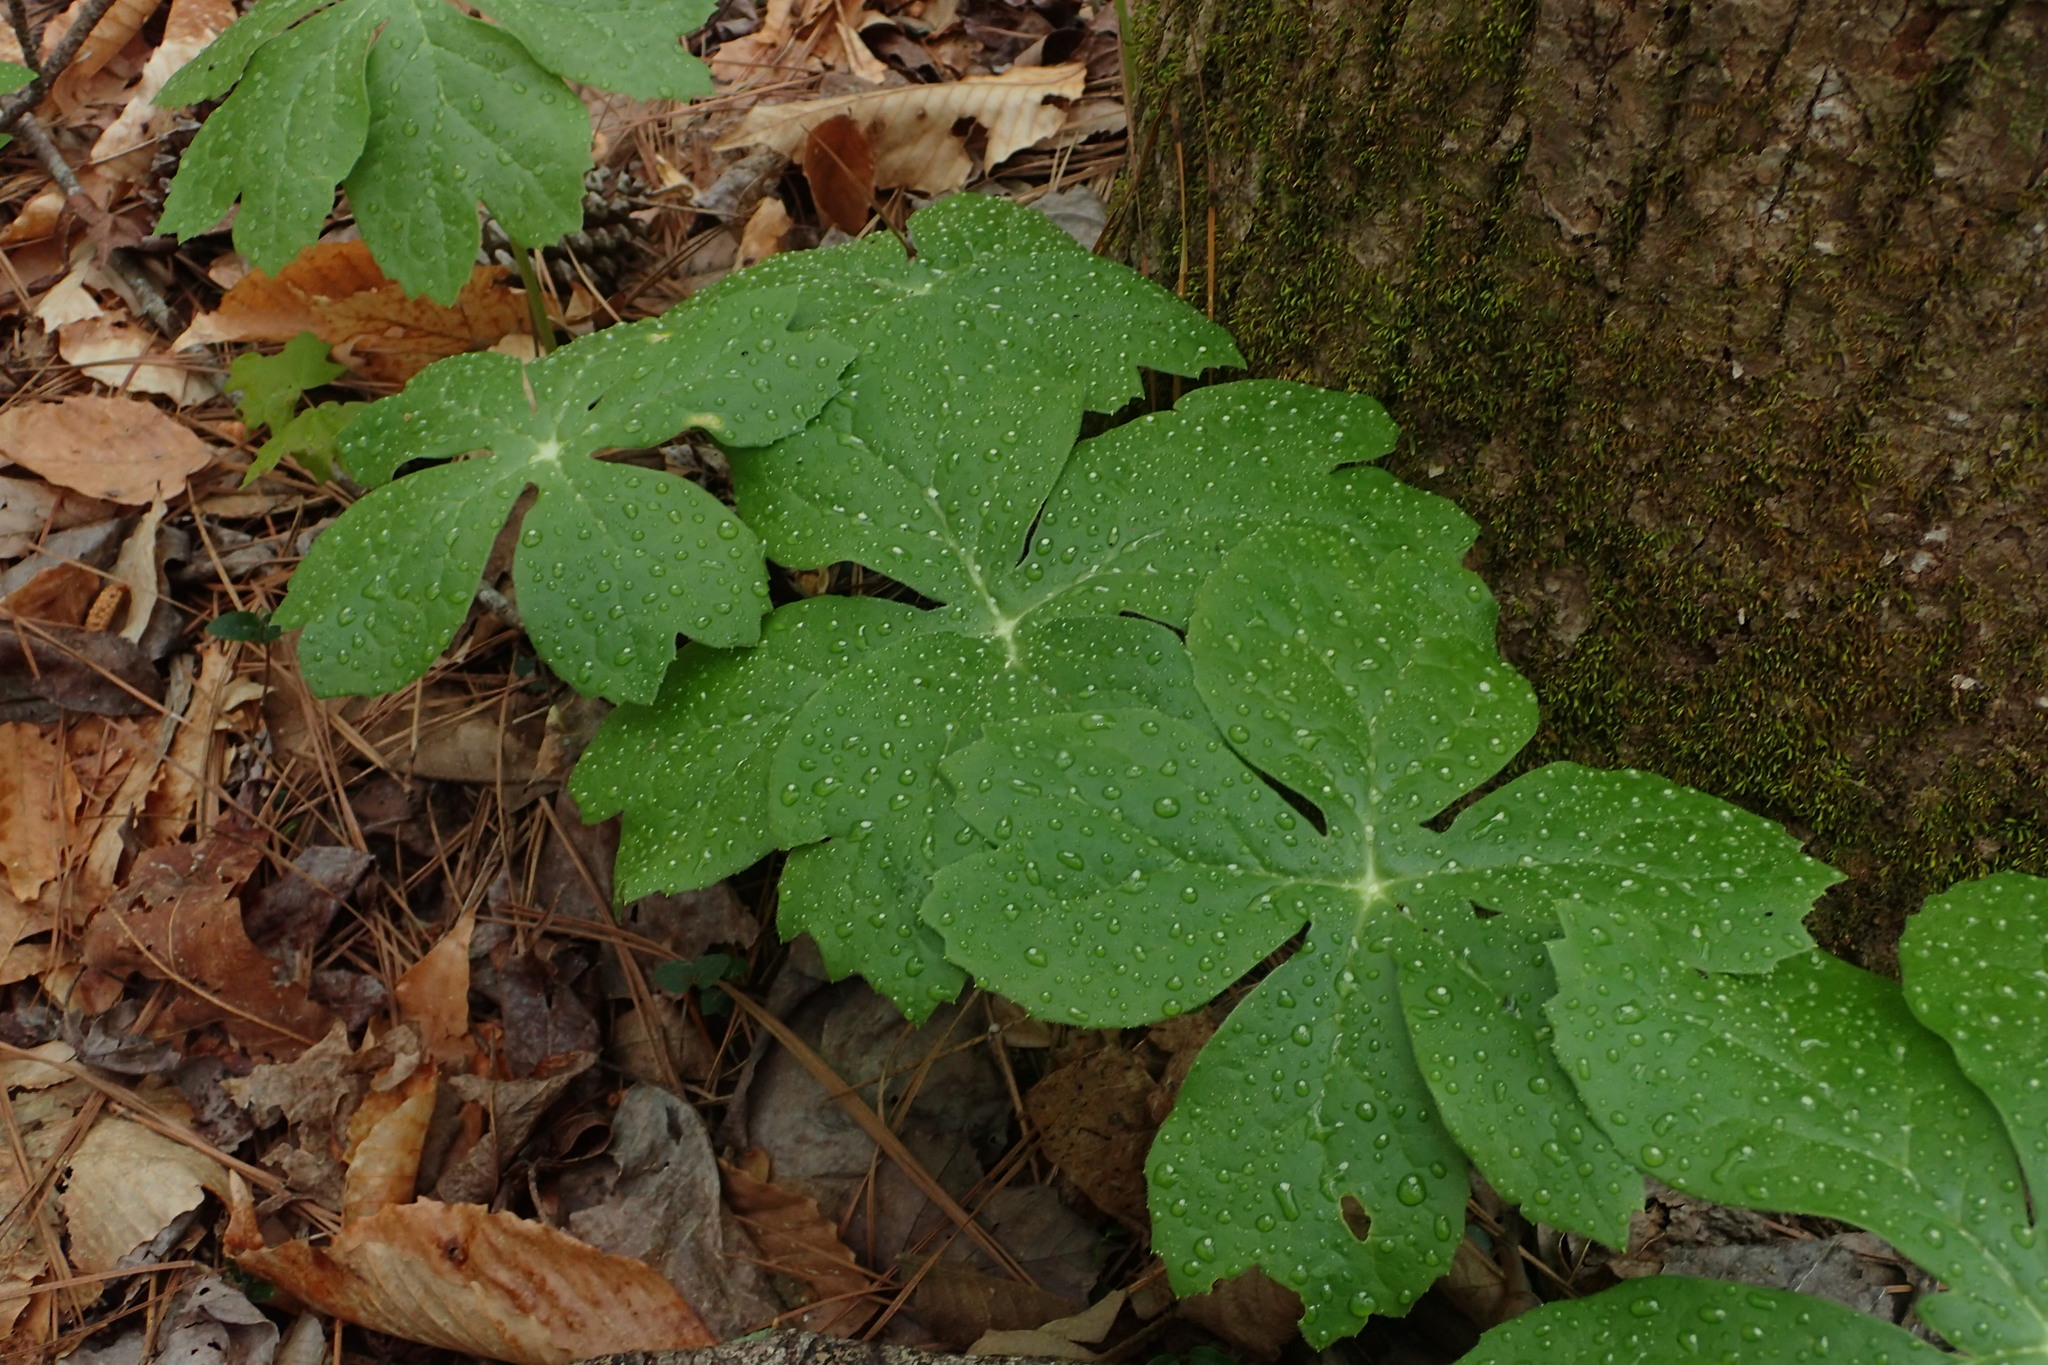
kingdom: Plantae
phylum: Tracheophyta
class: Magnoliopsida
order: Ranunculales
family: Berberidaceae
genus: Podophyllum
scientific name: Podophyllum peltatum
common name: Wild mandrake
